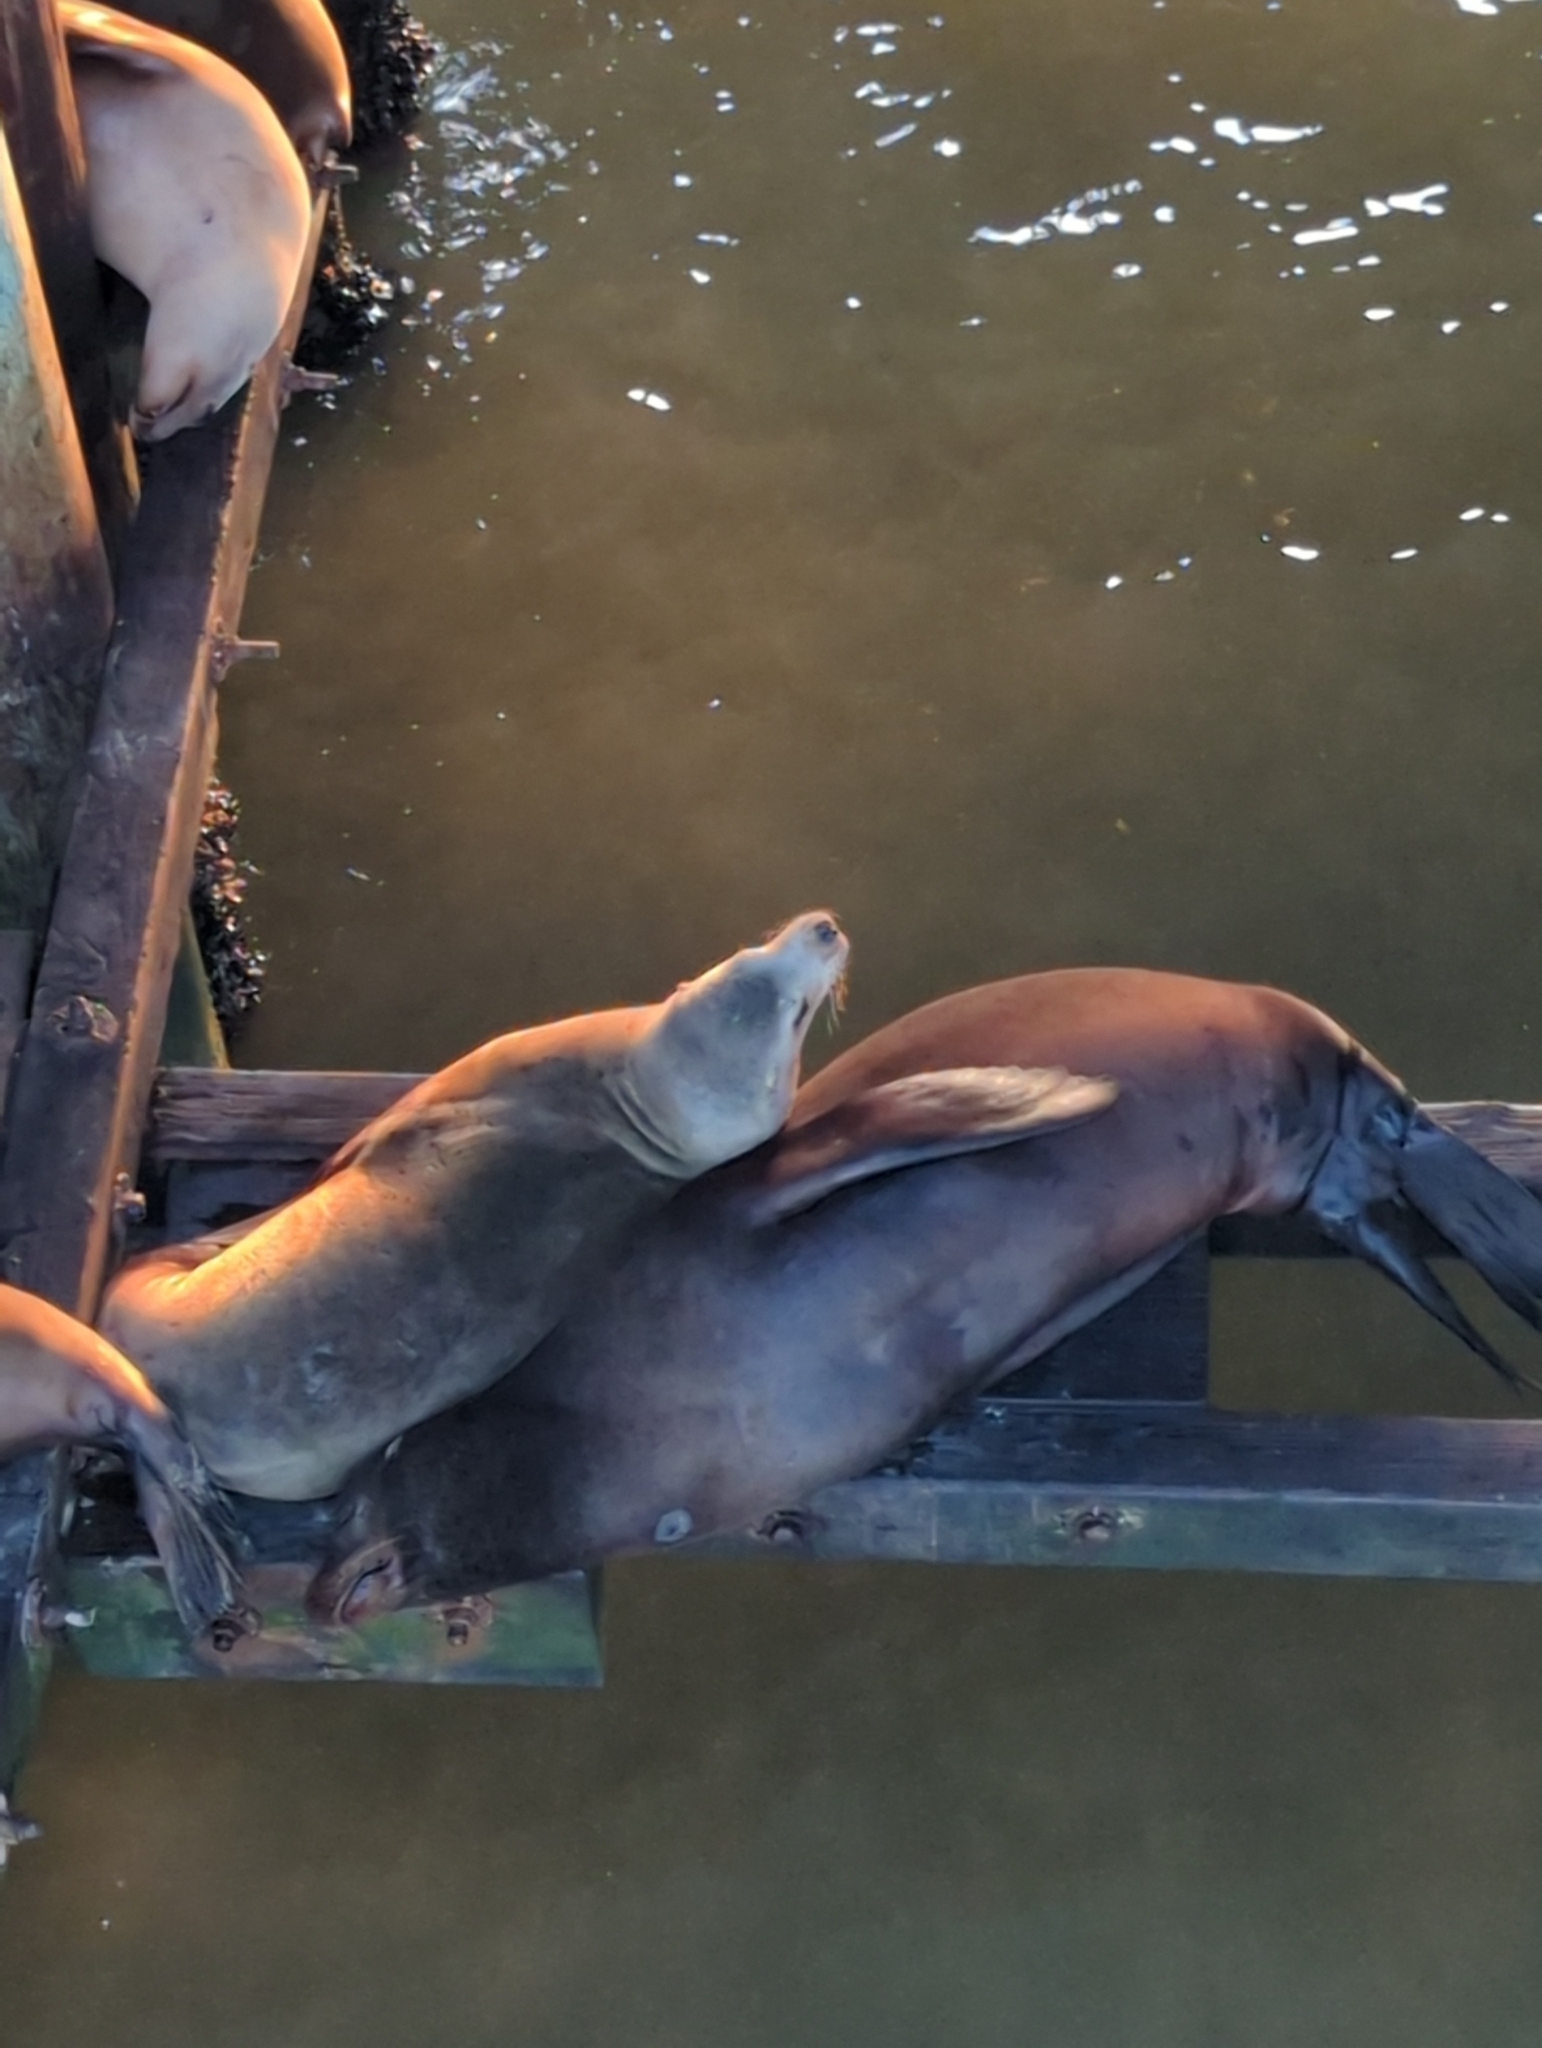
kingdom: Animalia
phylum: Chordata
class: Mammalia
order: Carnivora
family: Otariidae
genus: Zalophus
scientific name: Zalophus californianus
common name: California sea lion
